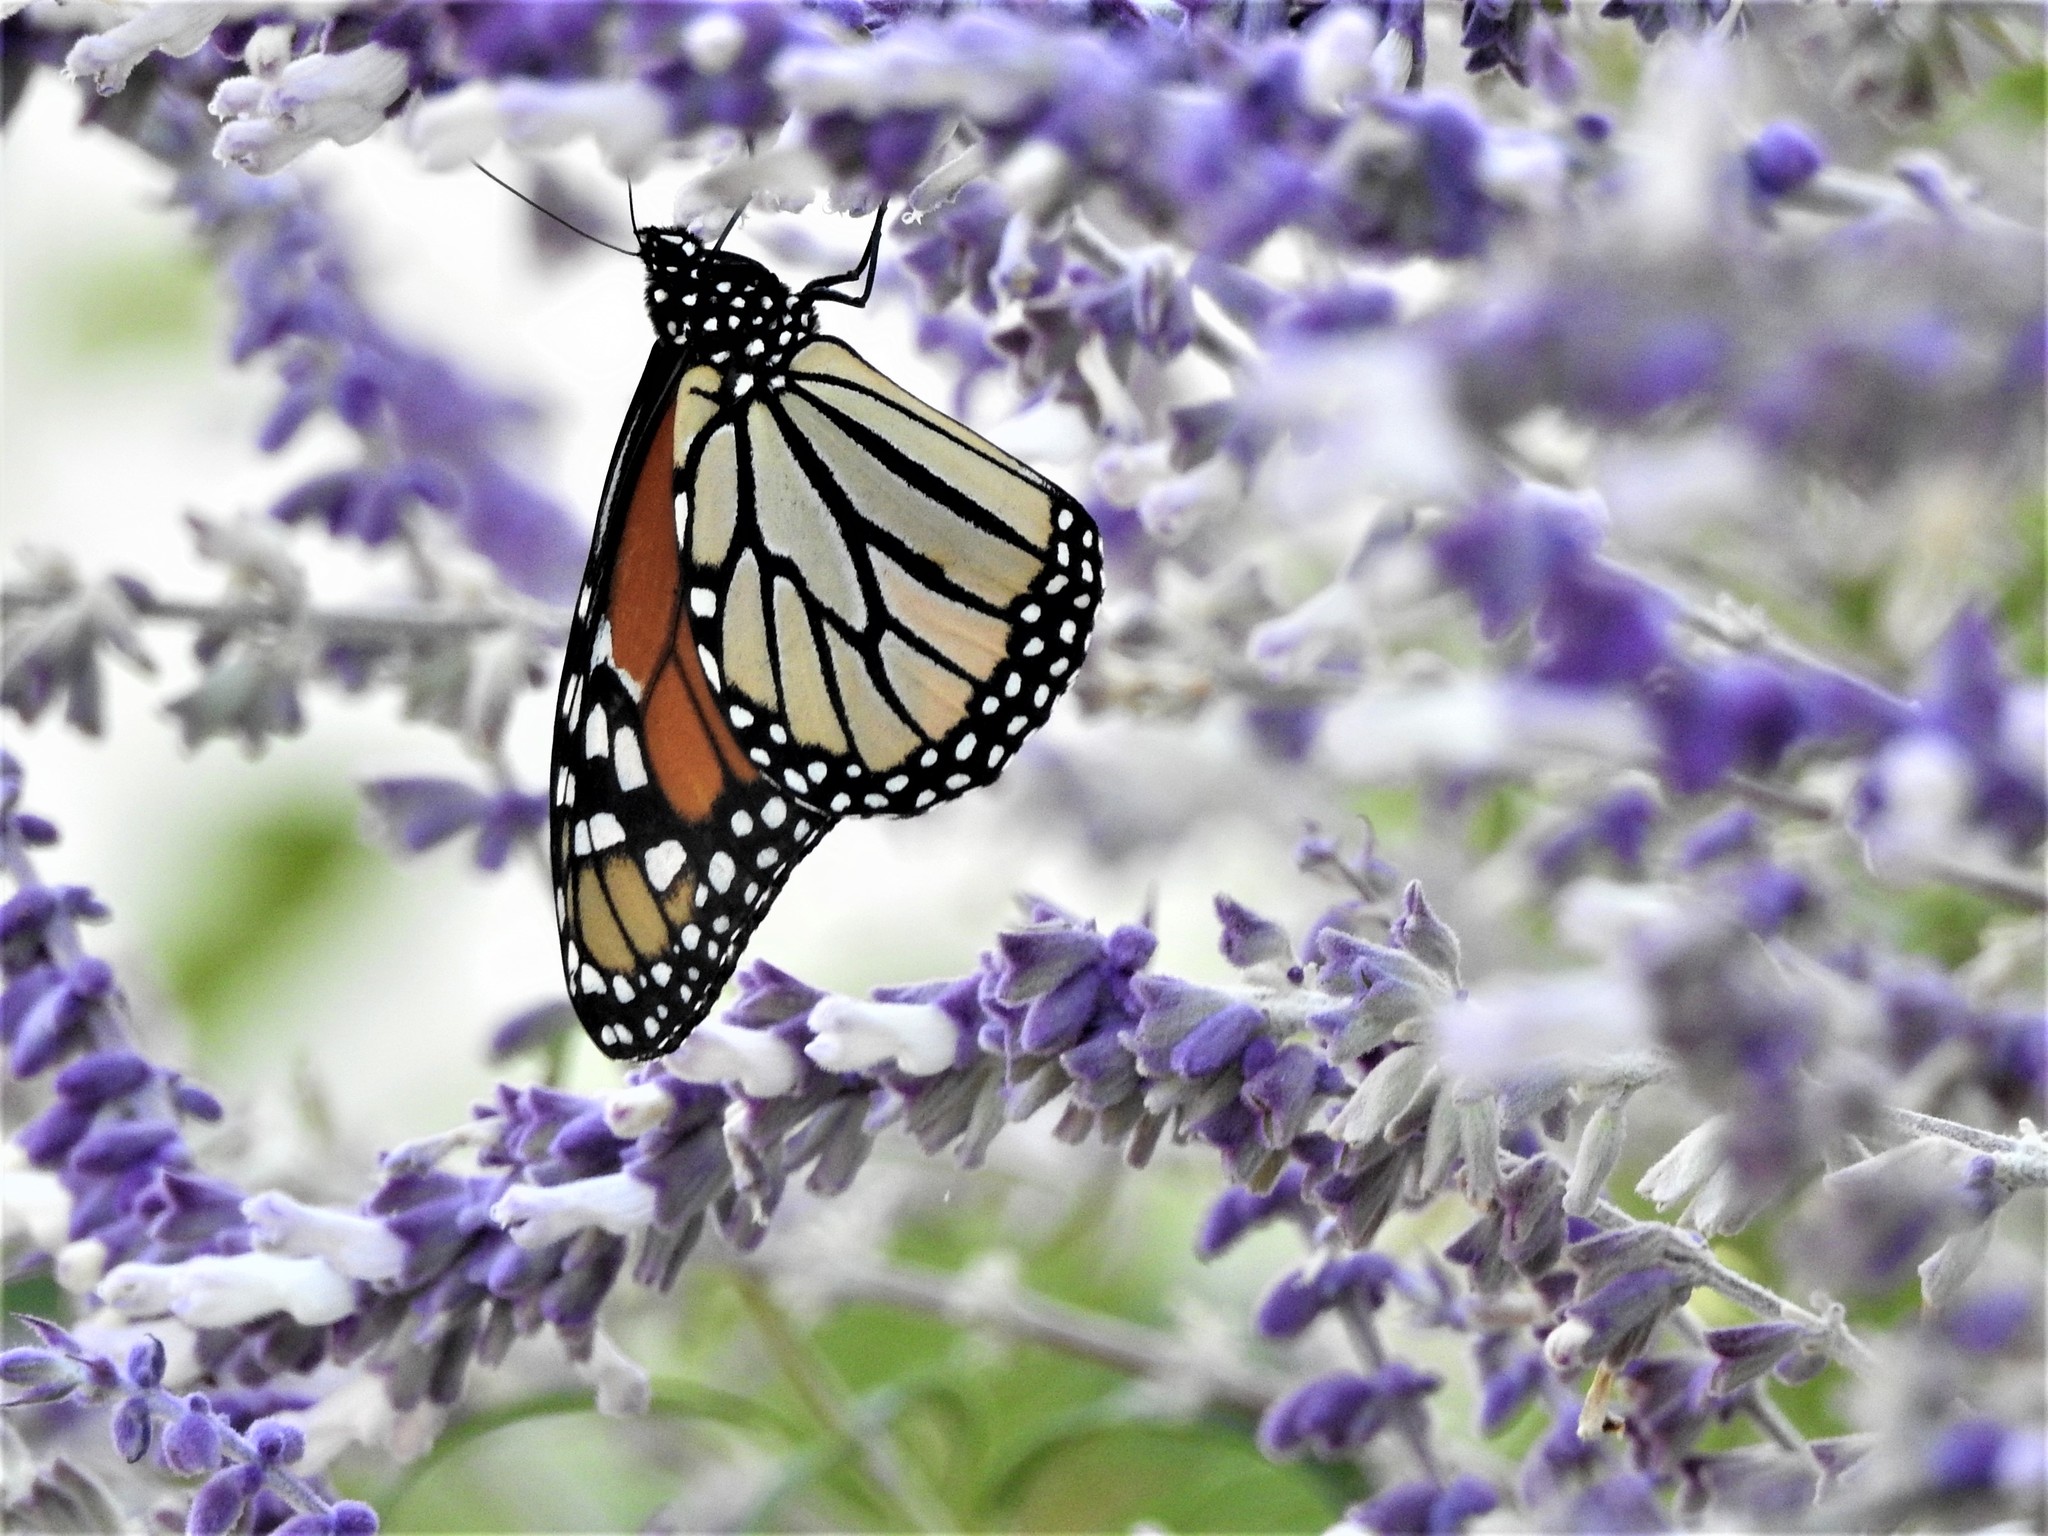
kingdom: Animalia
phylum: Arthropoda
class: Insecta
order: Lepidoptera
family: Nymphalidae
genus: Danaus
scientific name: Danaus plexippus
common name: Monarch
